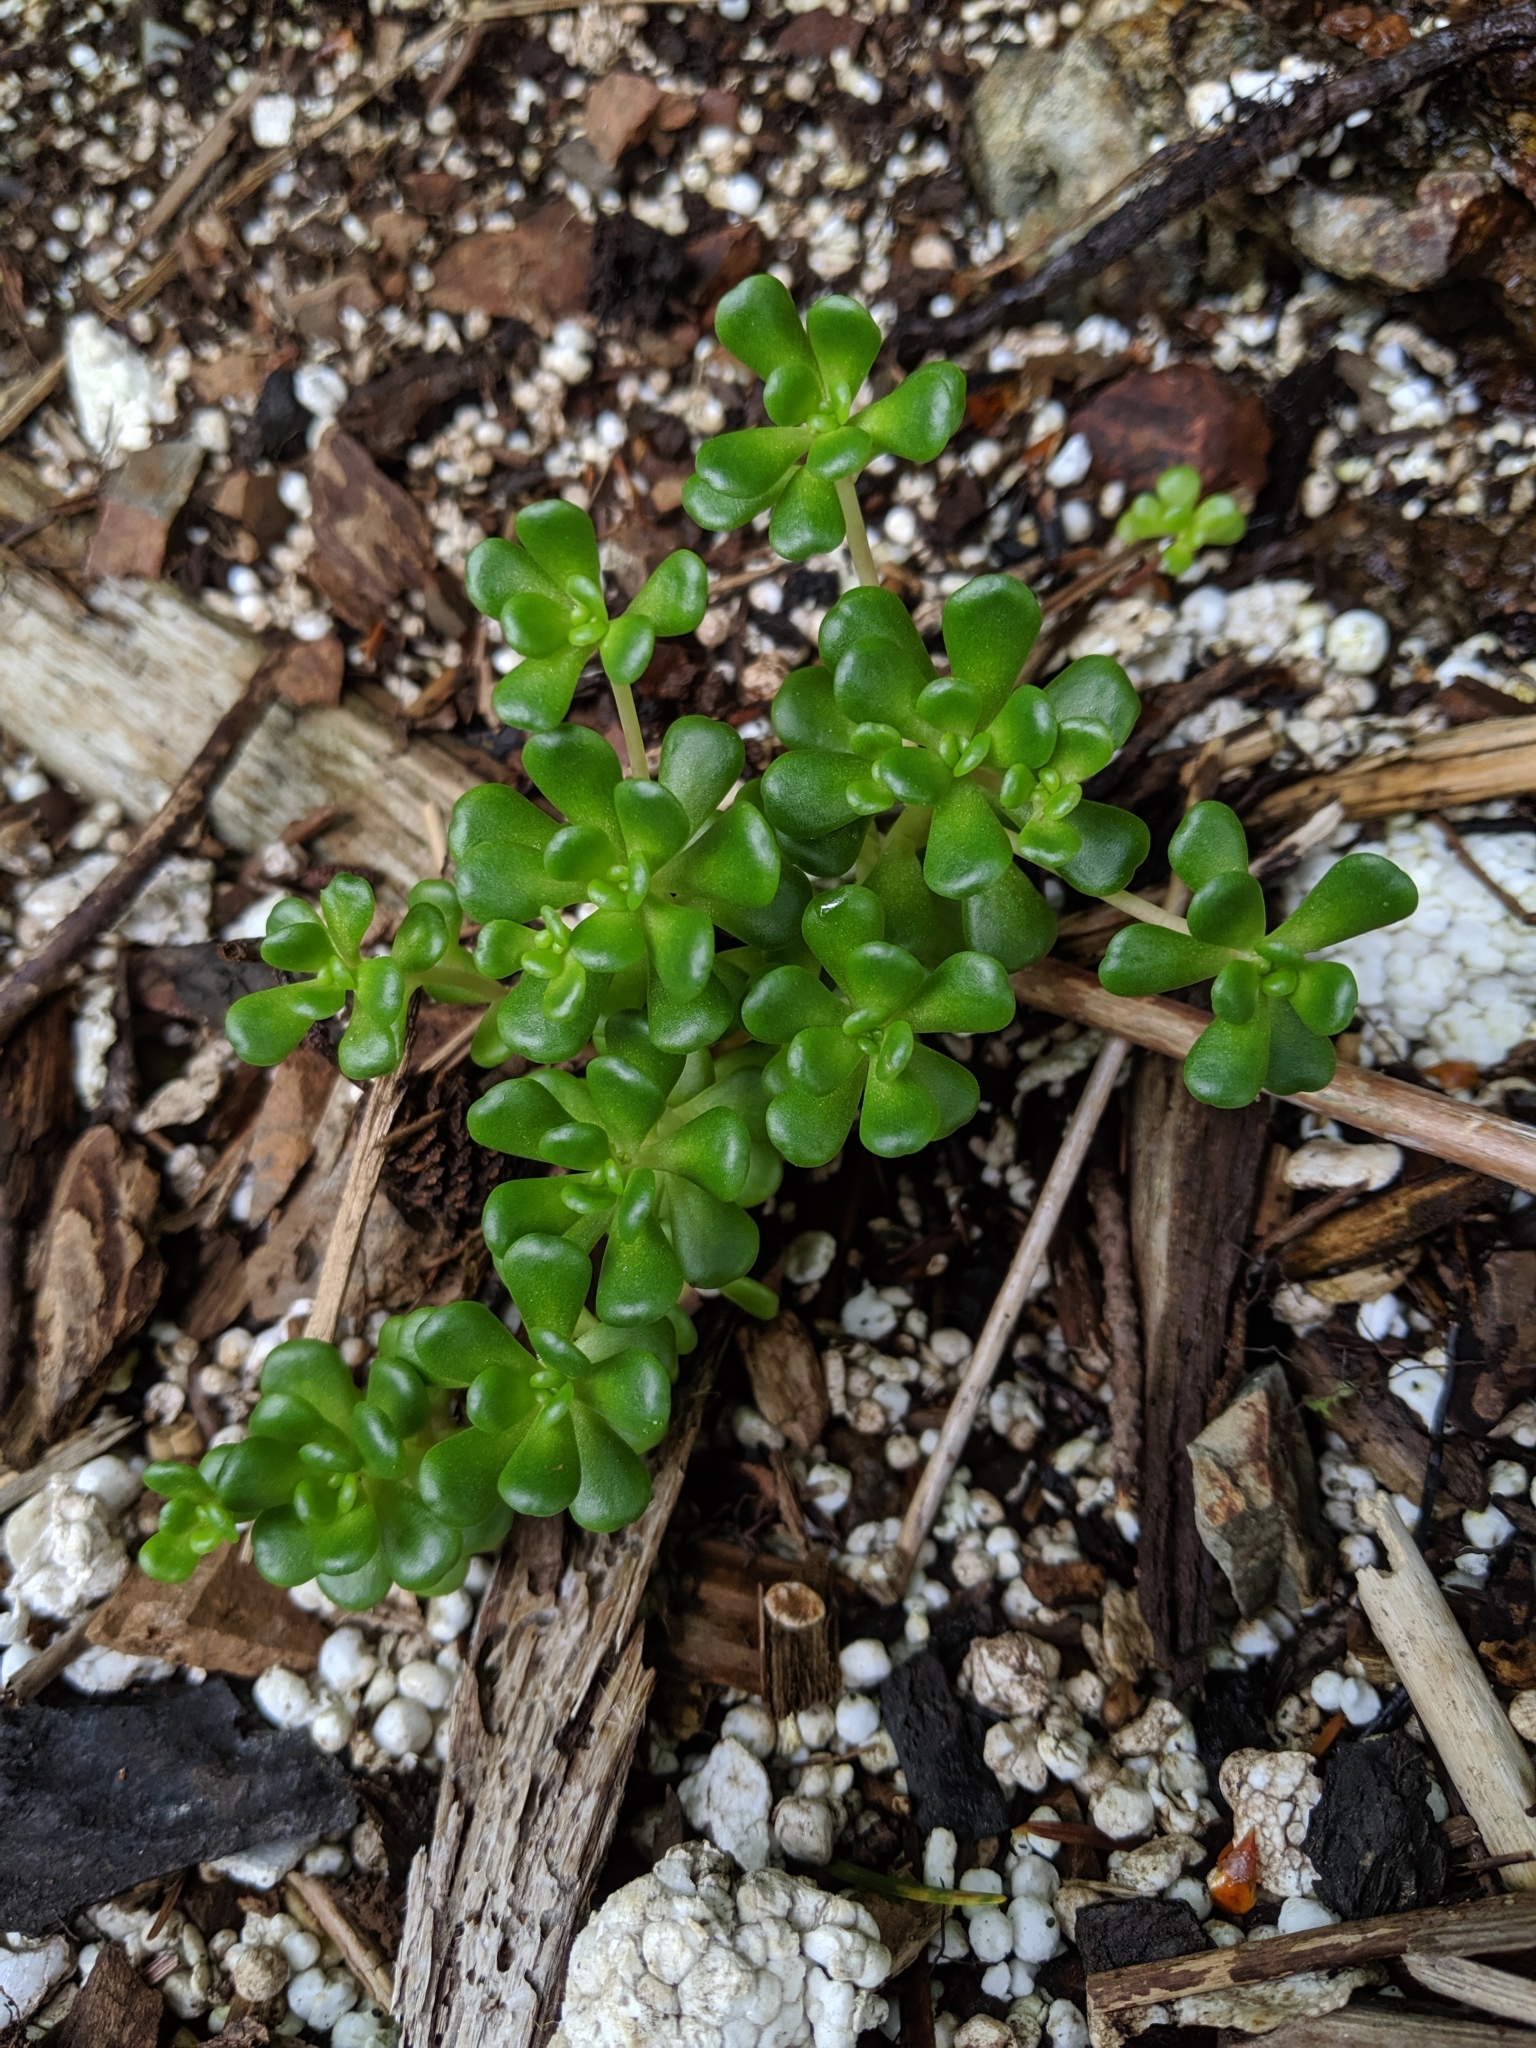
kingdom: Plantae
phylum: Tracheophyta
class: Magnoliopsida
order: Saxifragales
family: Crassulaceae
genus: Sedum
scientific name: Sedum oreganum
